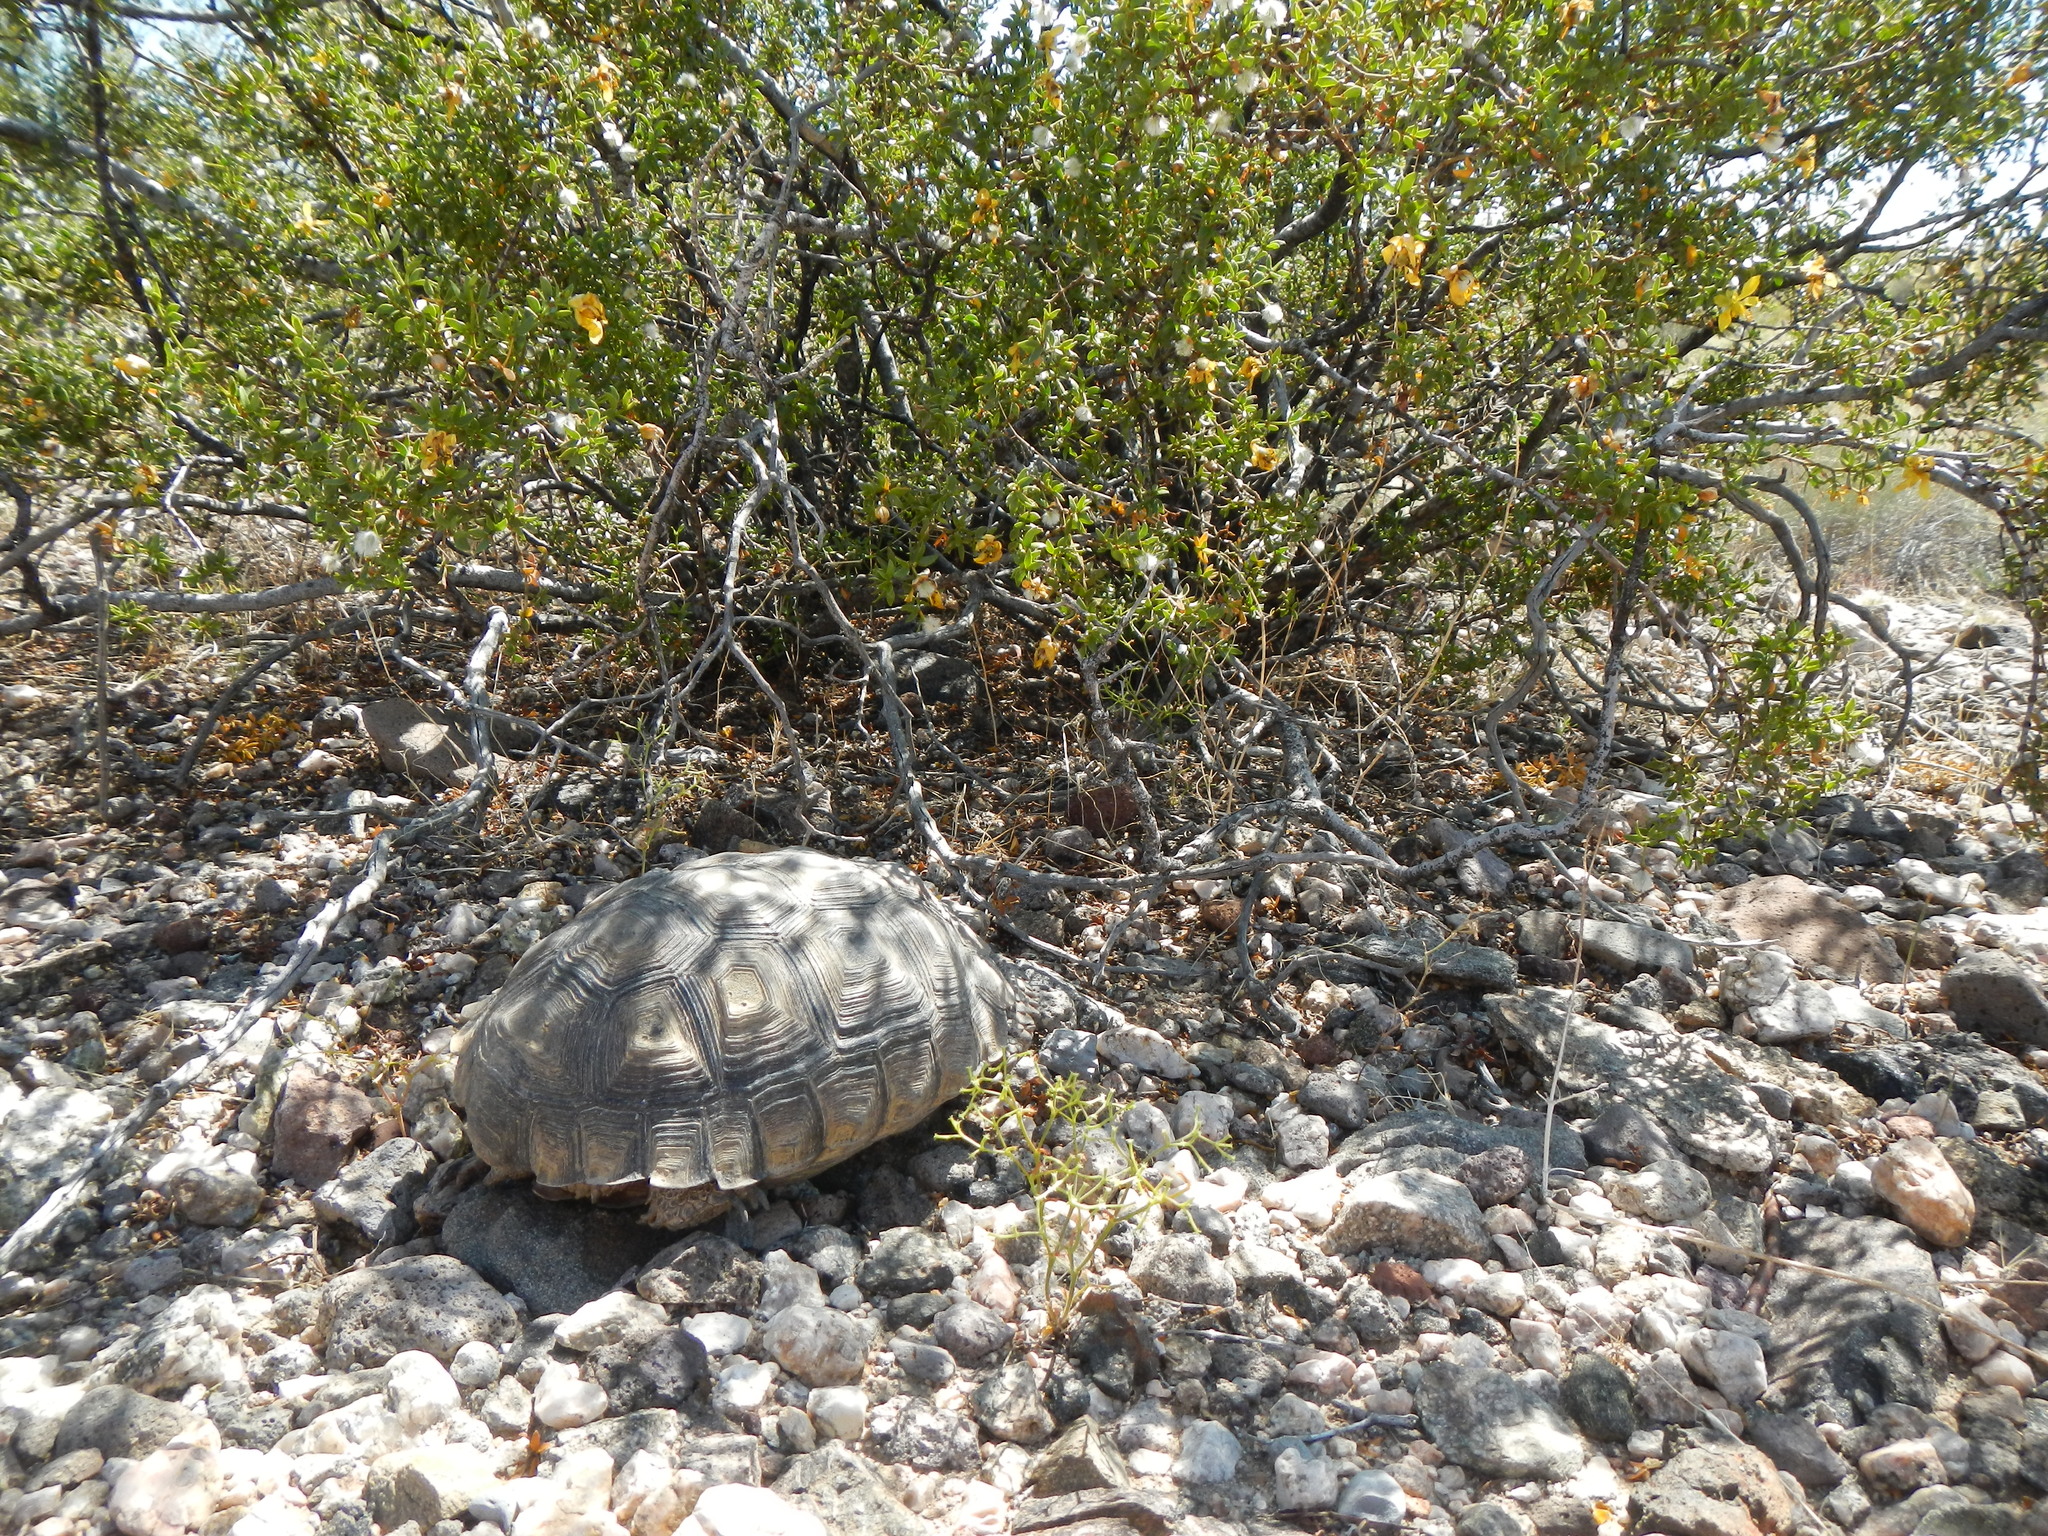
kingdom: Animalia
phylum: Chordata
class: Testudines
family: Testudinidae
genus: Gopherus
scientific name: Gopherus agassizii
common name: Mojave desert tortoise
